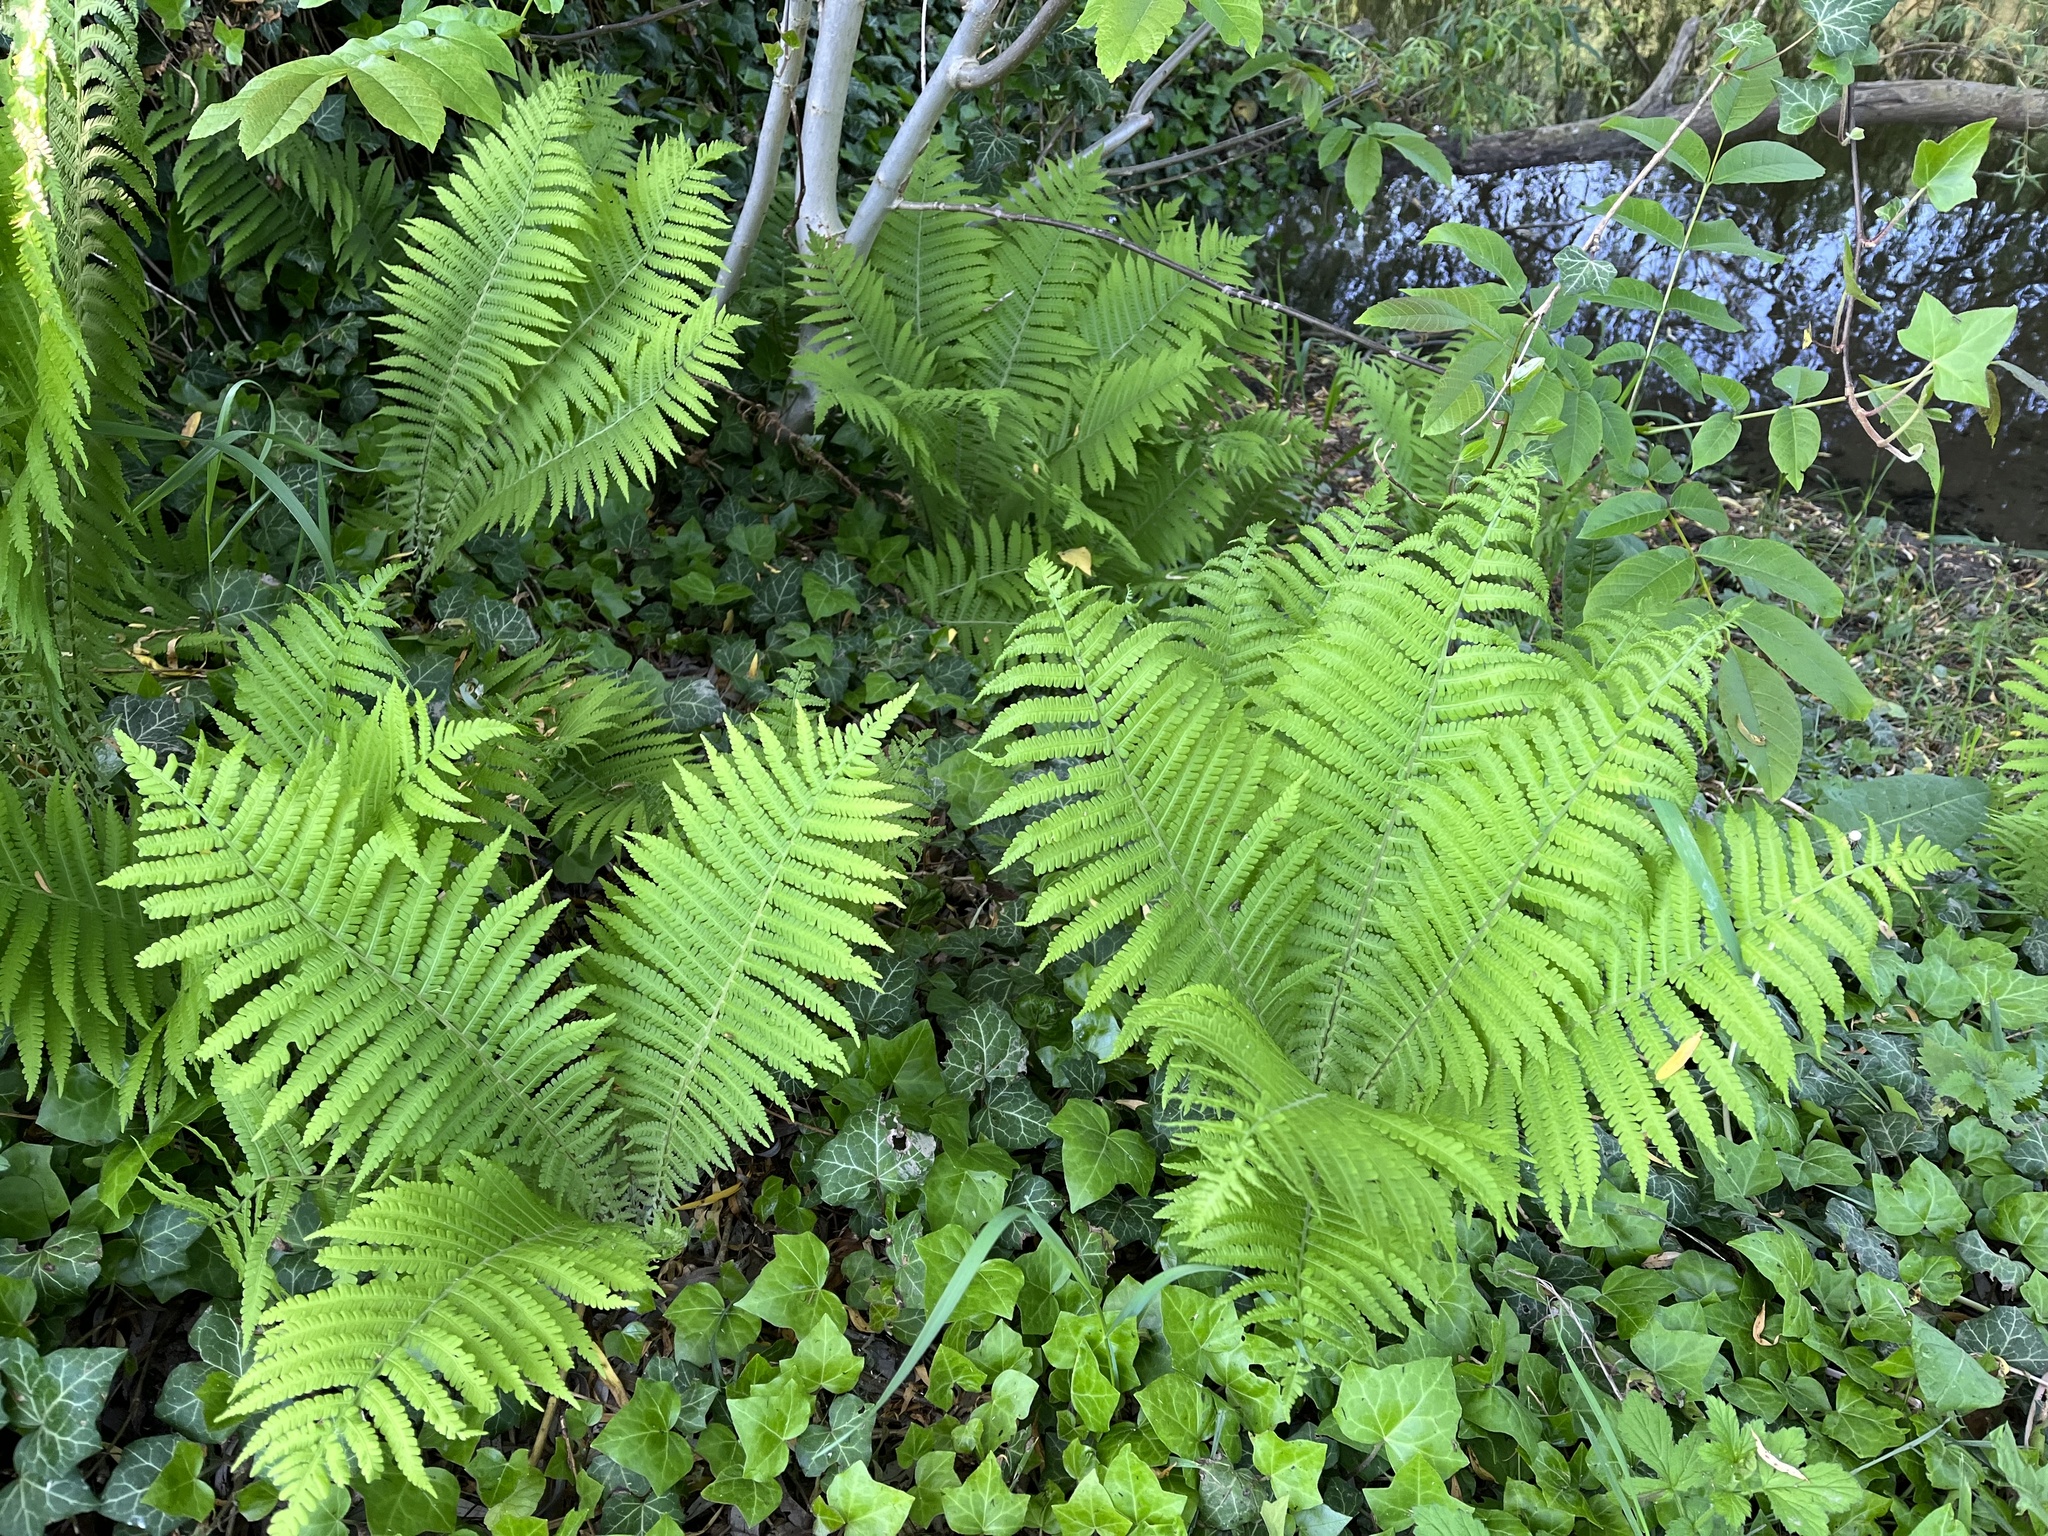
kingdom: Plantae
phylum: Tracheophyta
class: Polypodiopsida
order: Polypodiales
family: Onocleaceae
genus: Matteuccia
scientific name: Matteuccia struthiopteris
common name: Ostrich fern
